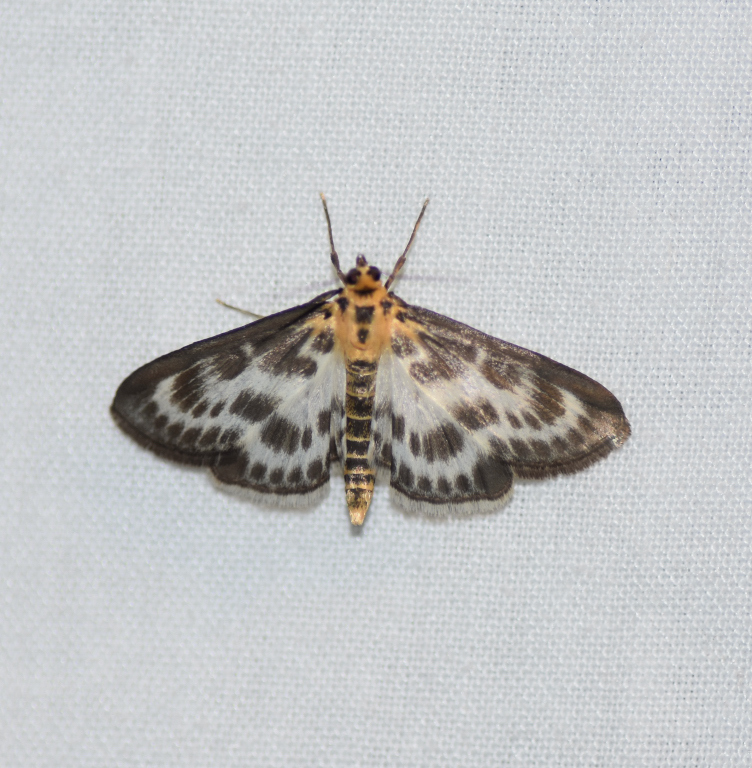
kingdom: Animalia
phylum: Arthropoda
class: Insecta
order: Lepidoptera
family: Crambidae
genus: Anania
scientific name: Anania hortulata
